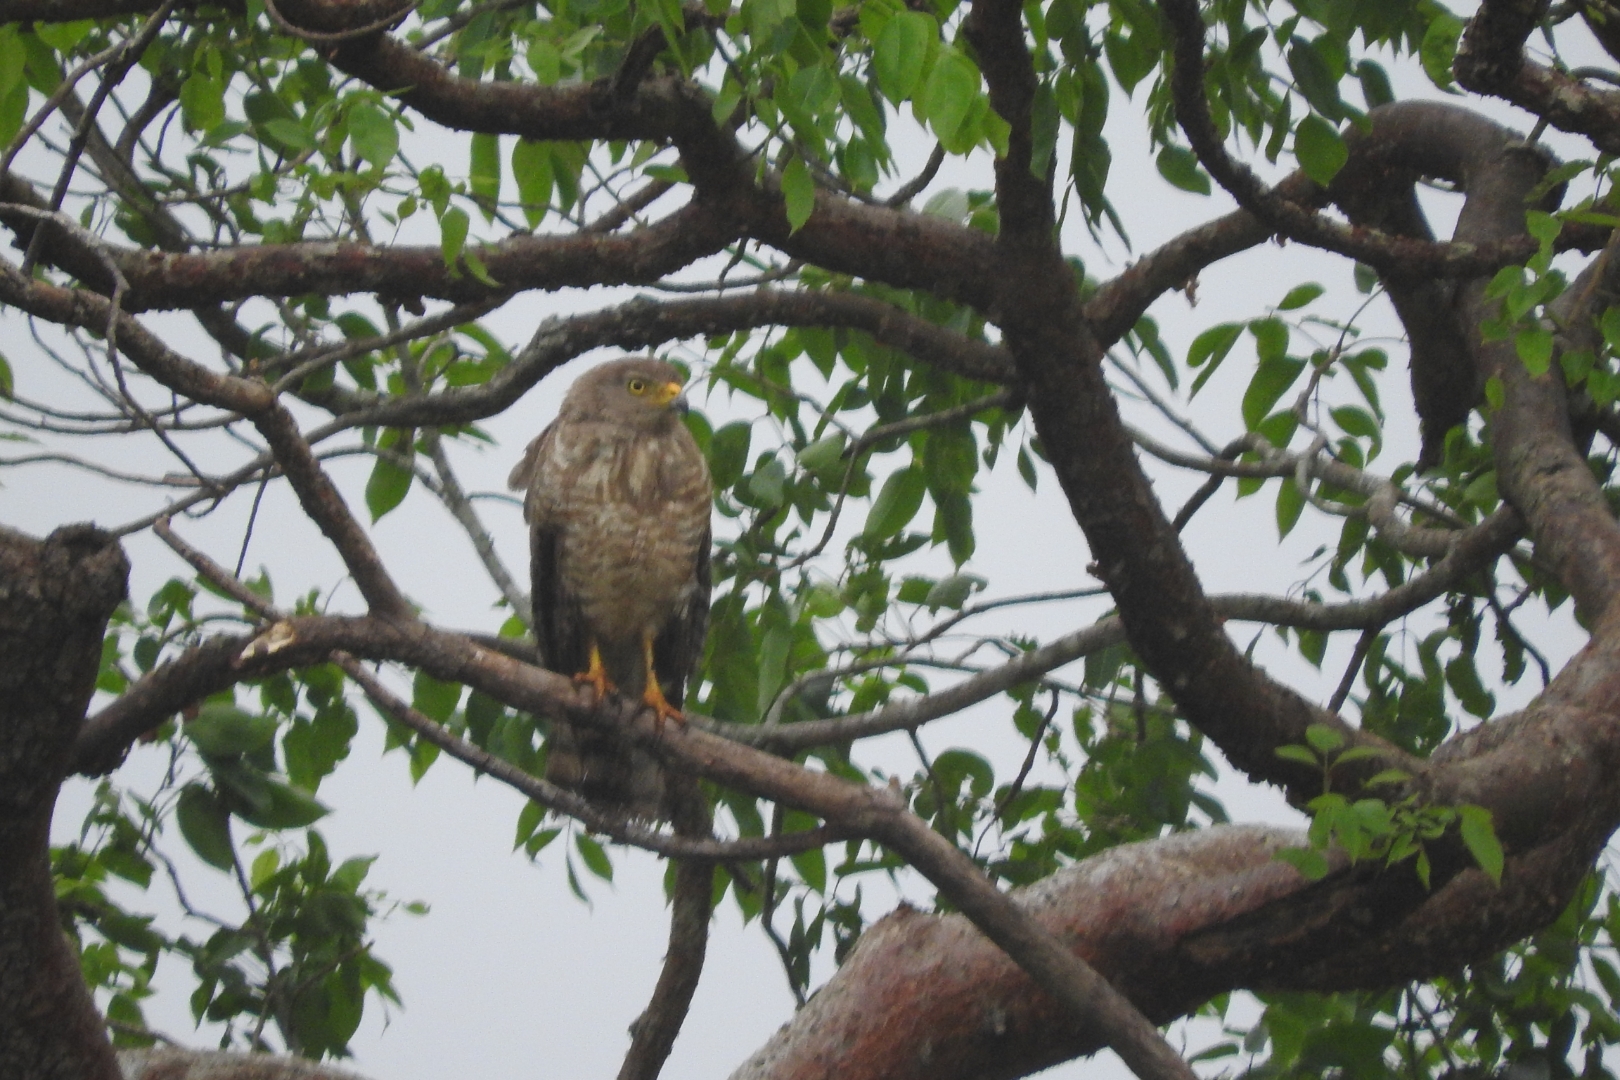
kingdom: Animalia
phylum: Chordata
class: Aves
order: Accipitriformes
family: Accipitridae
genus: Rupornis
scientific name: Rupornis magnirostris
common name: Roadside hawk
